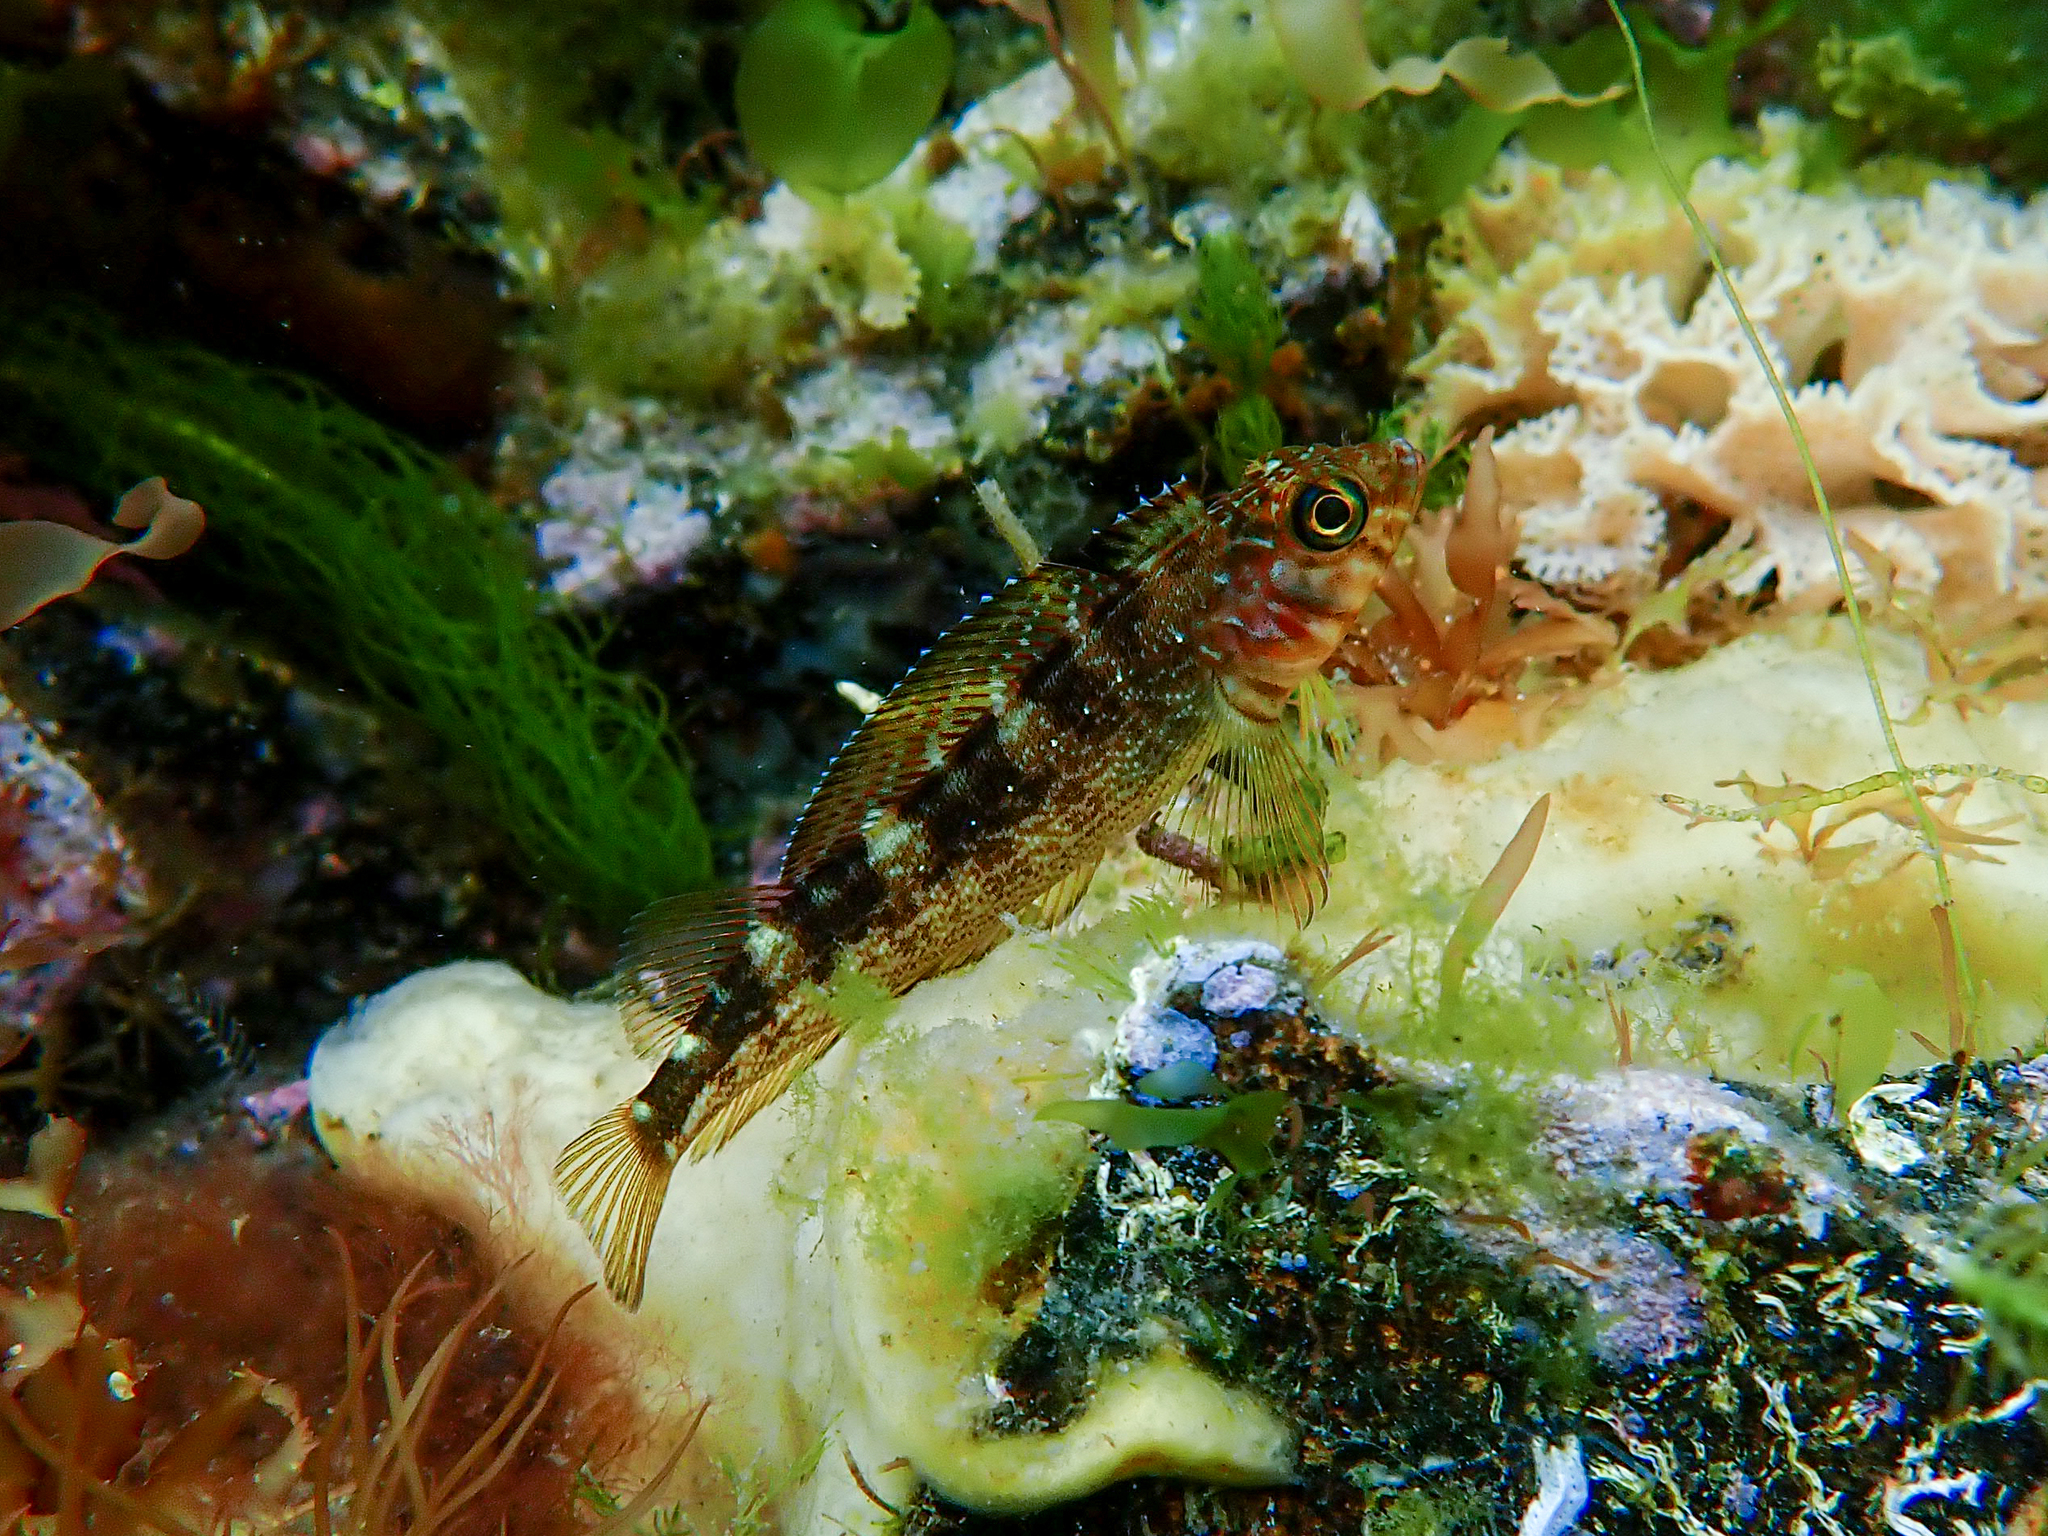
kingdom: Animalia
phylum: Chordata
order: Perciformes
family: Tripterygiidae
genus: Forsterygion
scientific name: Forsterygion varium
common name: Variable triplefin
